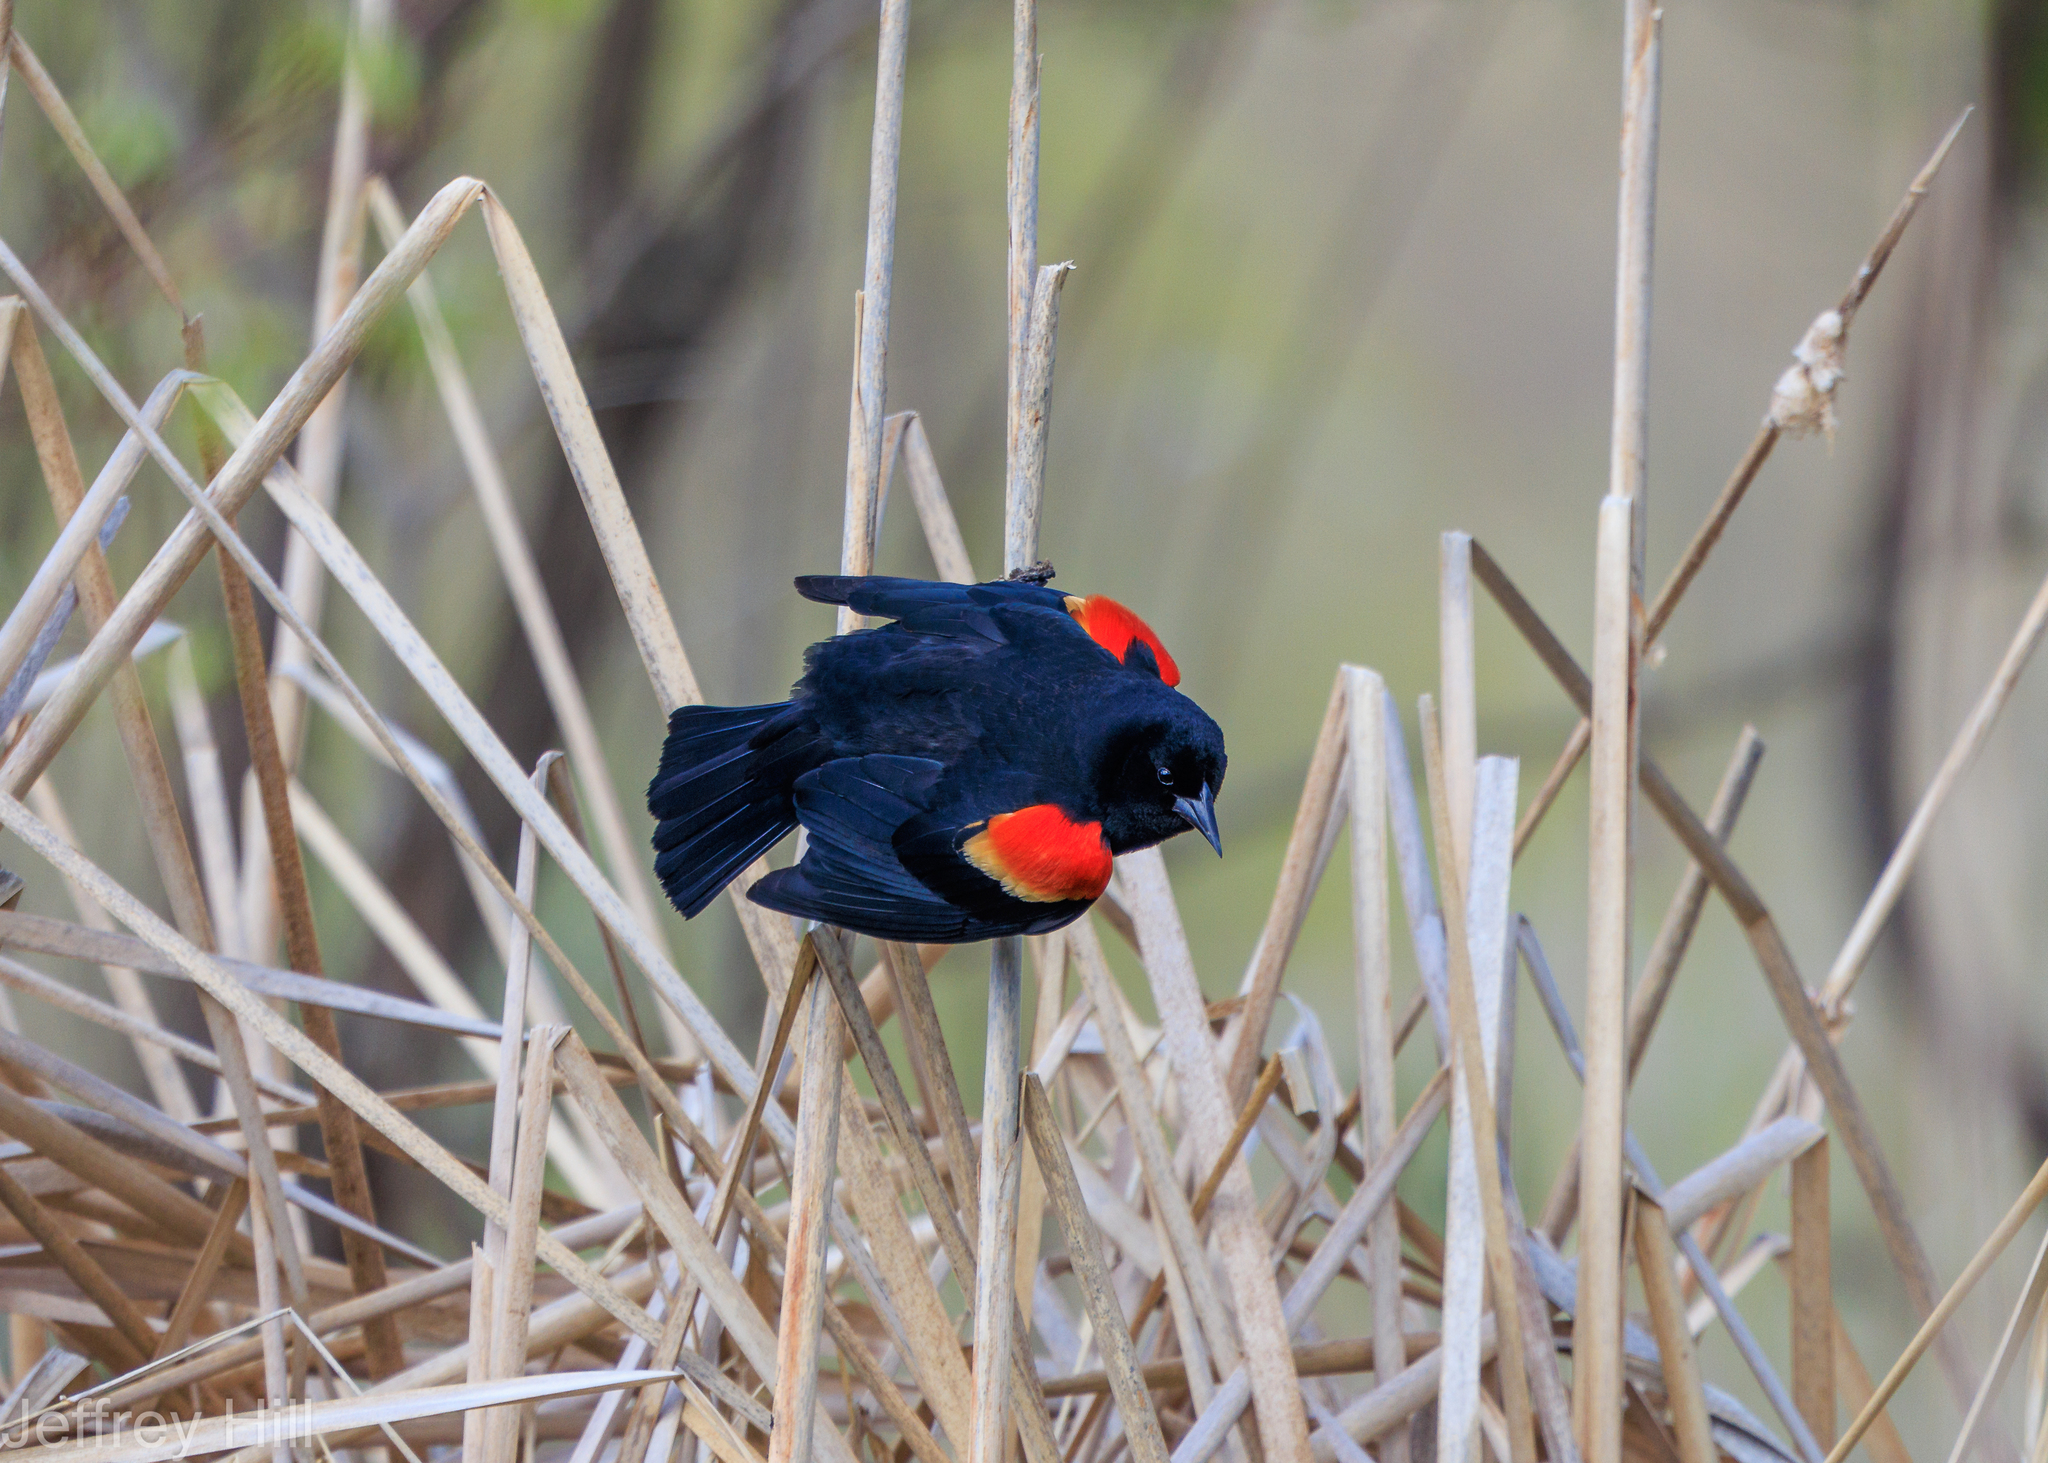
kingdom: Animalia
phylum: Chordata
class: Aves
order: Passeriformes
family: Icteridae
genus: Agelaius
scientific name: Agelaius phoeniceus
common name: Red-winged blackbird
